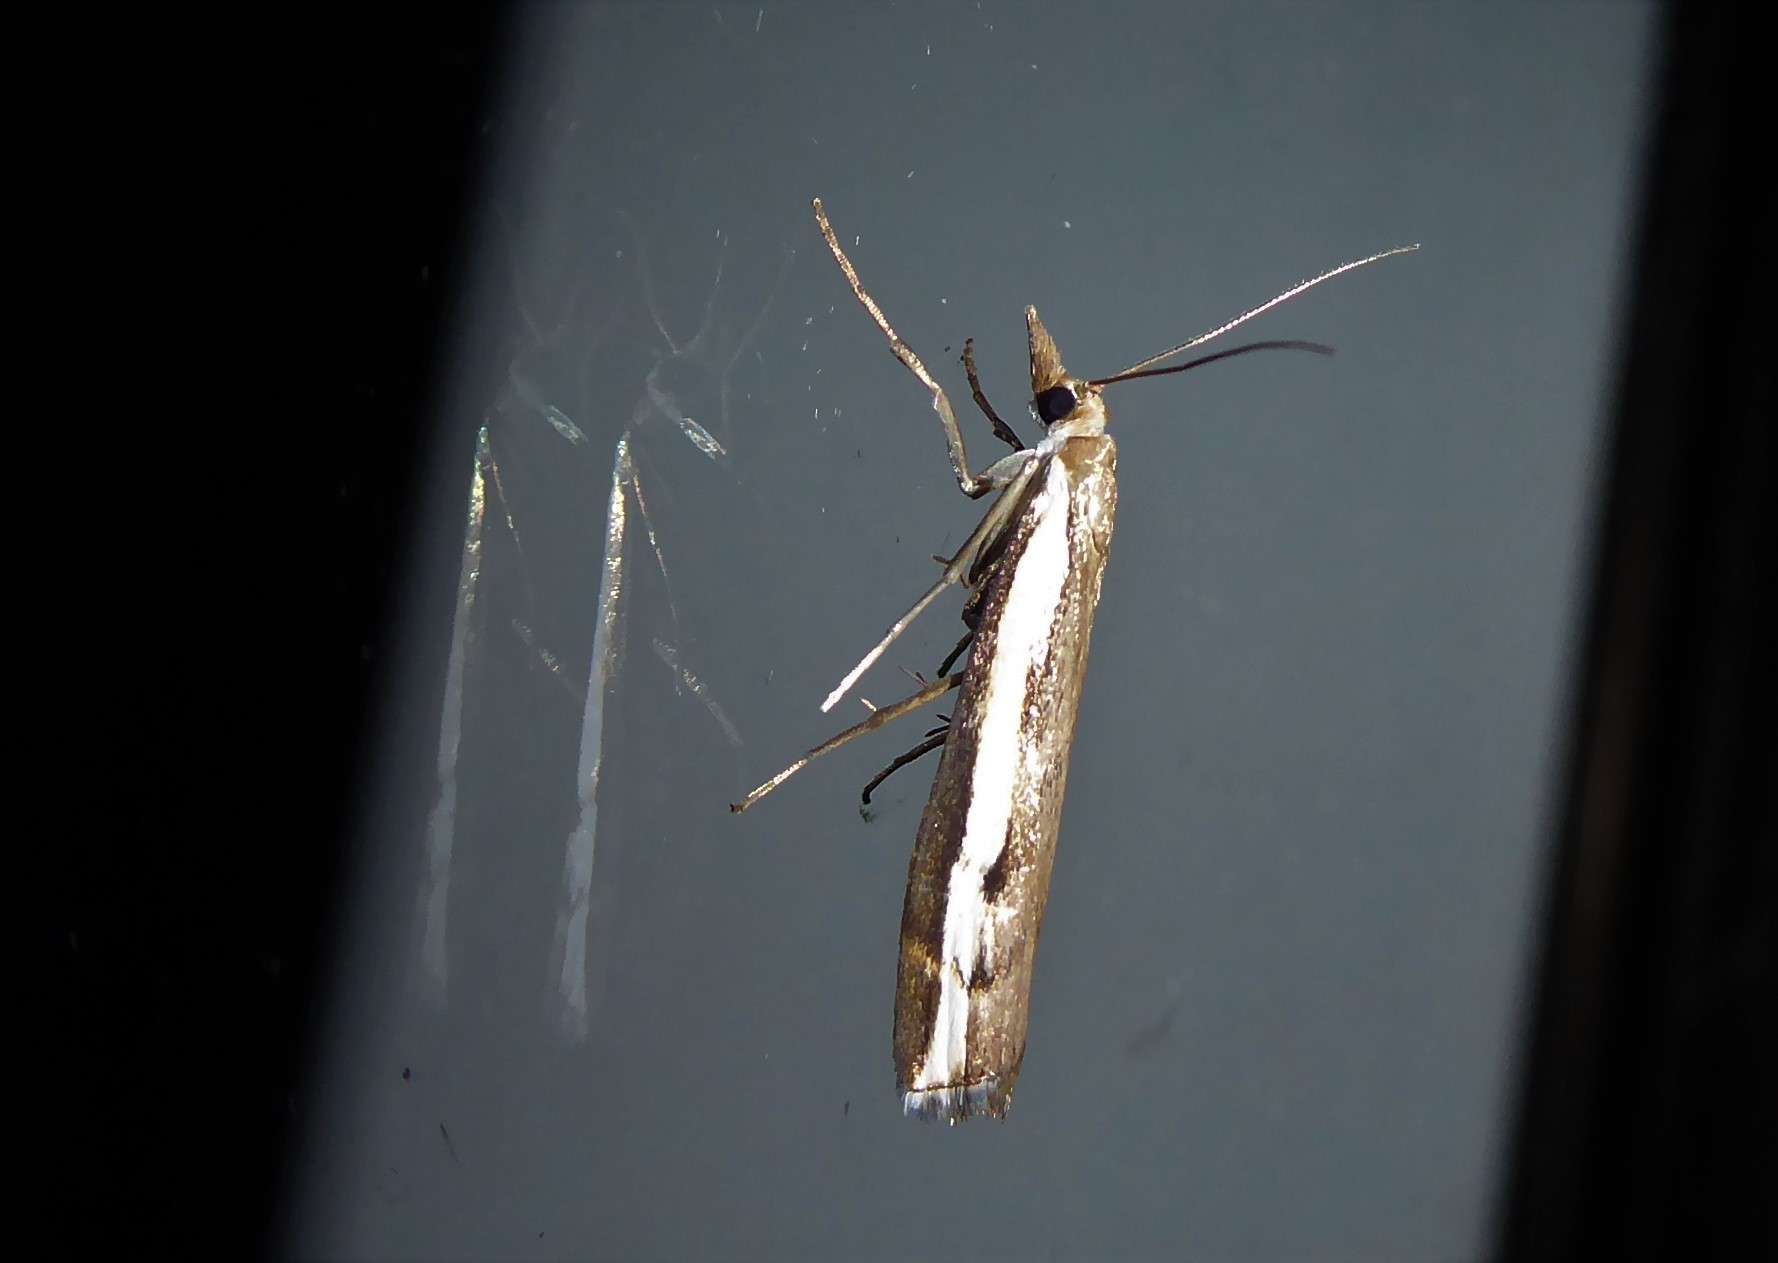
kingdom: Animalia
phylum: Arthropoda
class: Insecta
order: Lepidoptera
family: Crambidae
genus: Orocrambus
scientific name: Orocrambus flexuosellus
